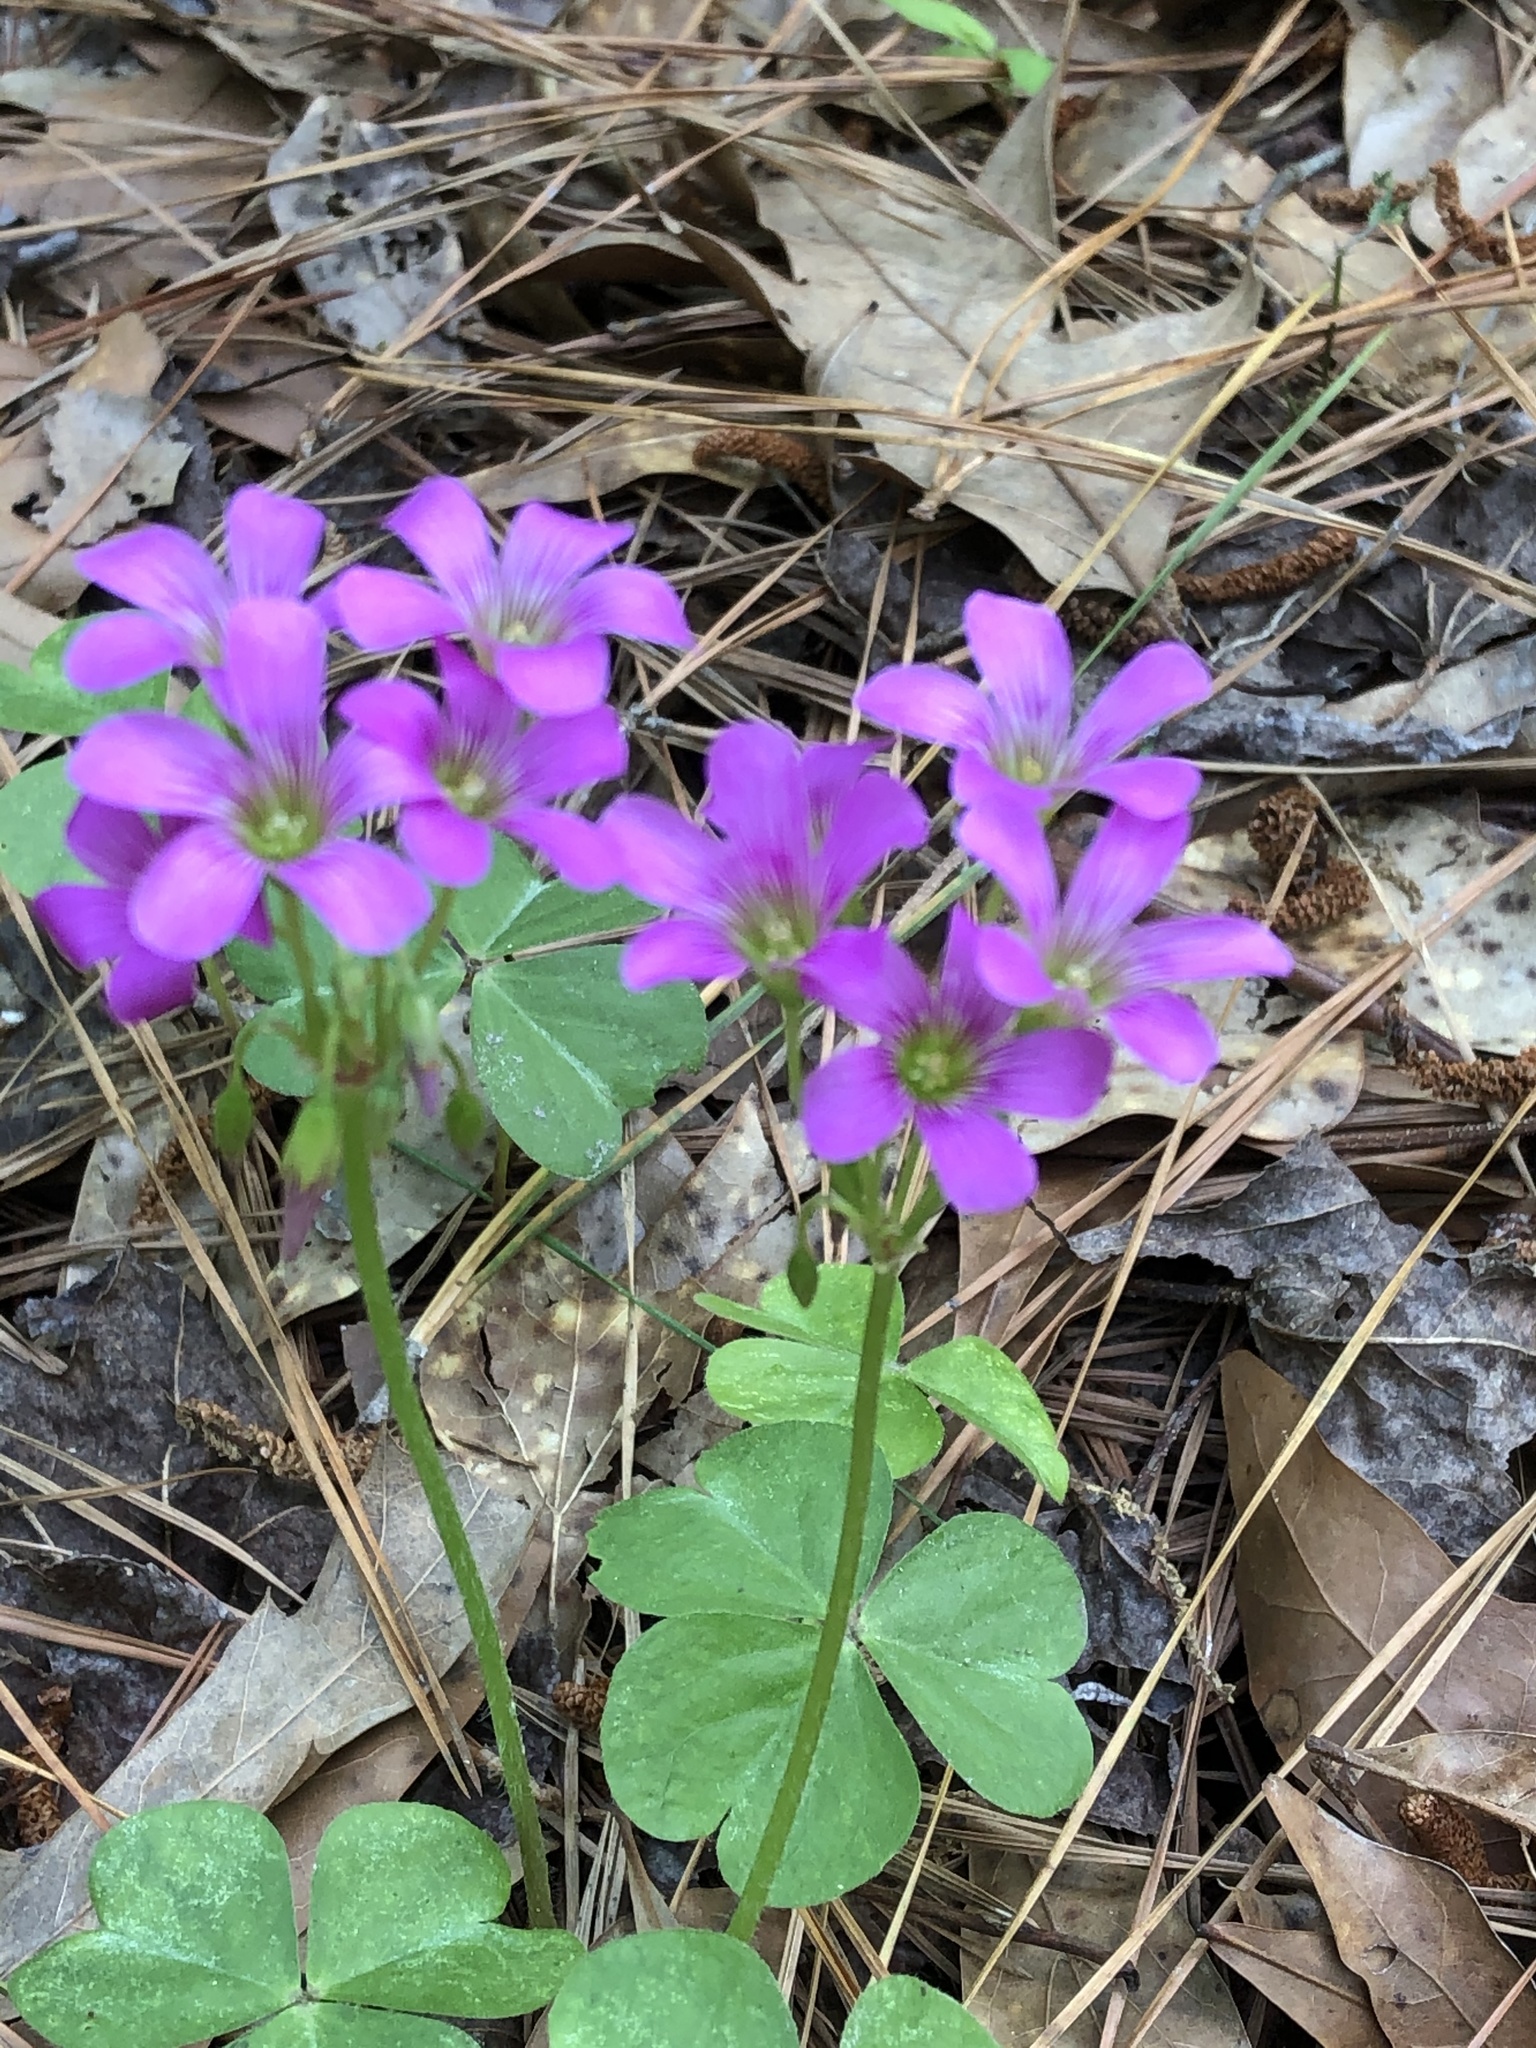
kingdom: Plantae
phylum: Tracheophyta
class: Magnoliopsida
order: Oxalidales
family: Oxalidaceae
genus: Oxalis
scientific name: Oxalis debilis
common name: Large-flowered pink-sorrel
